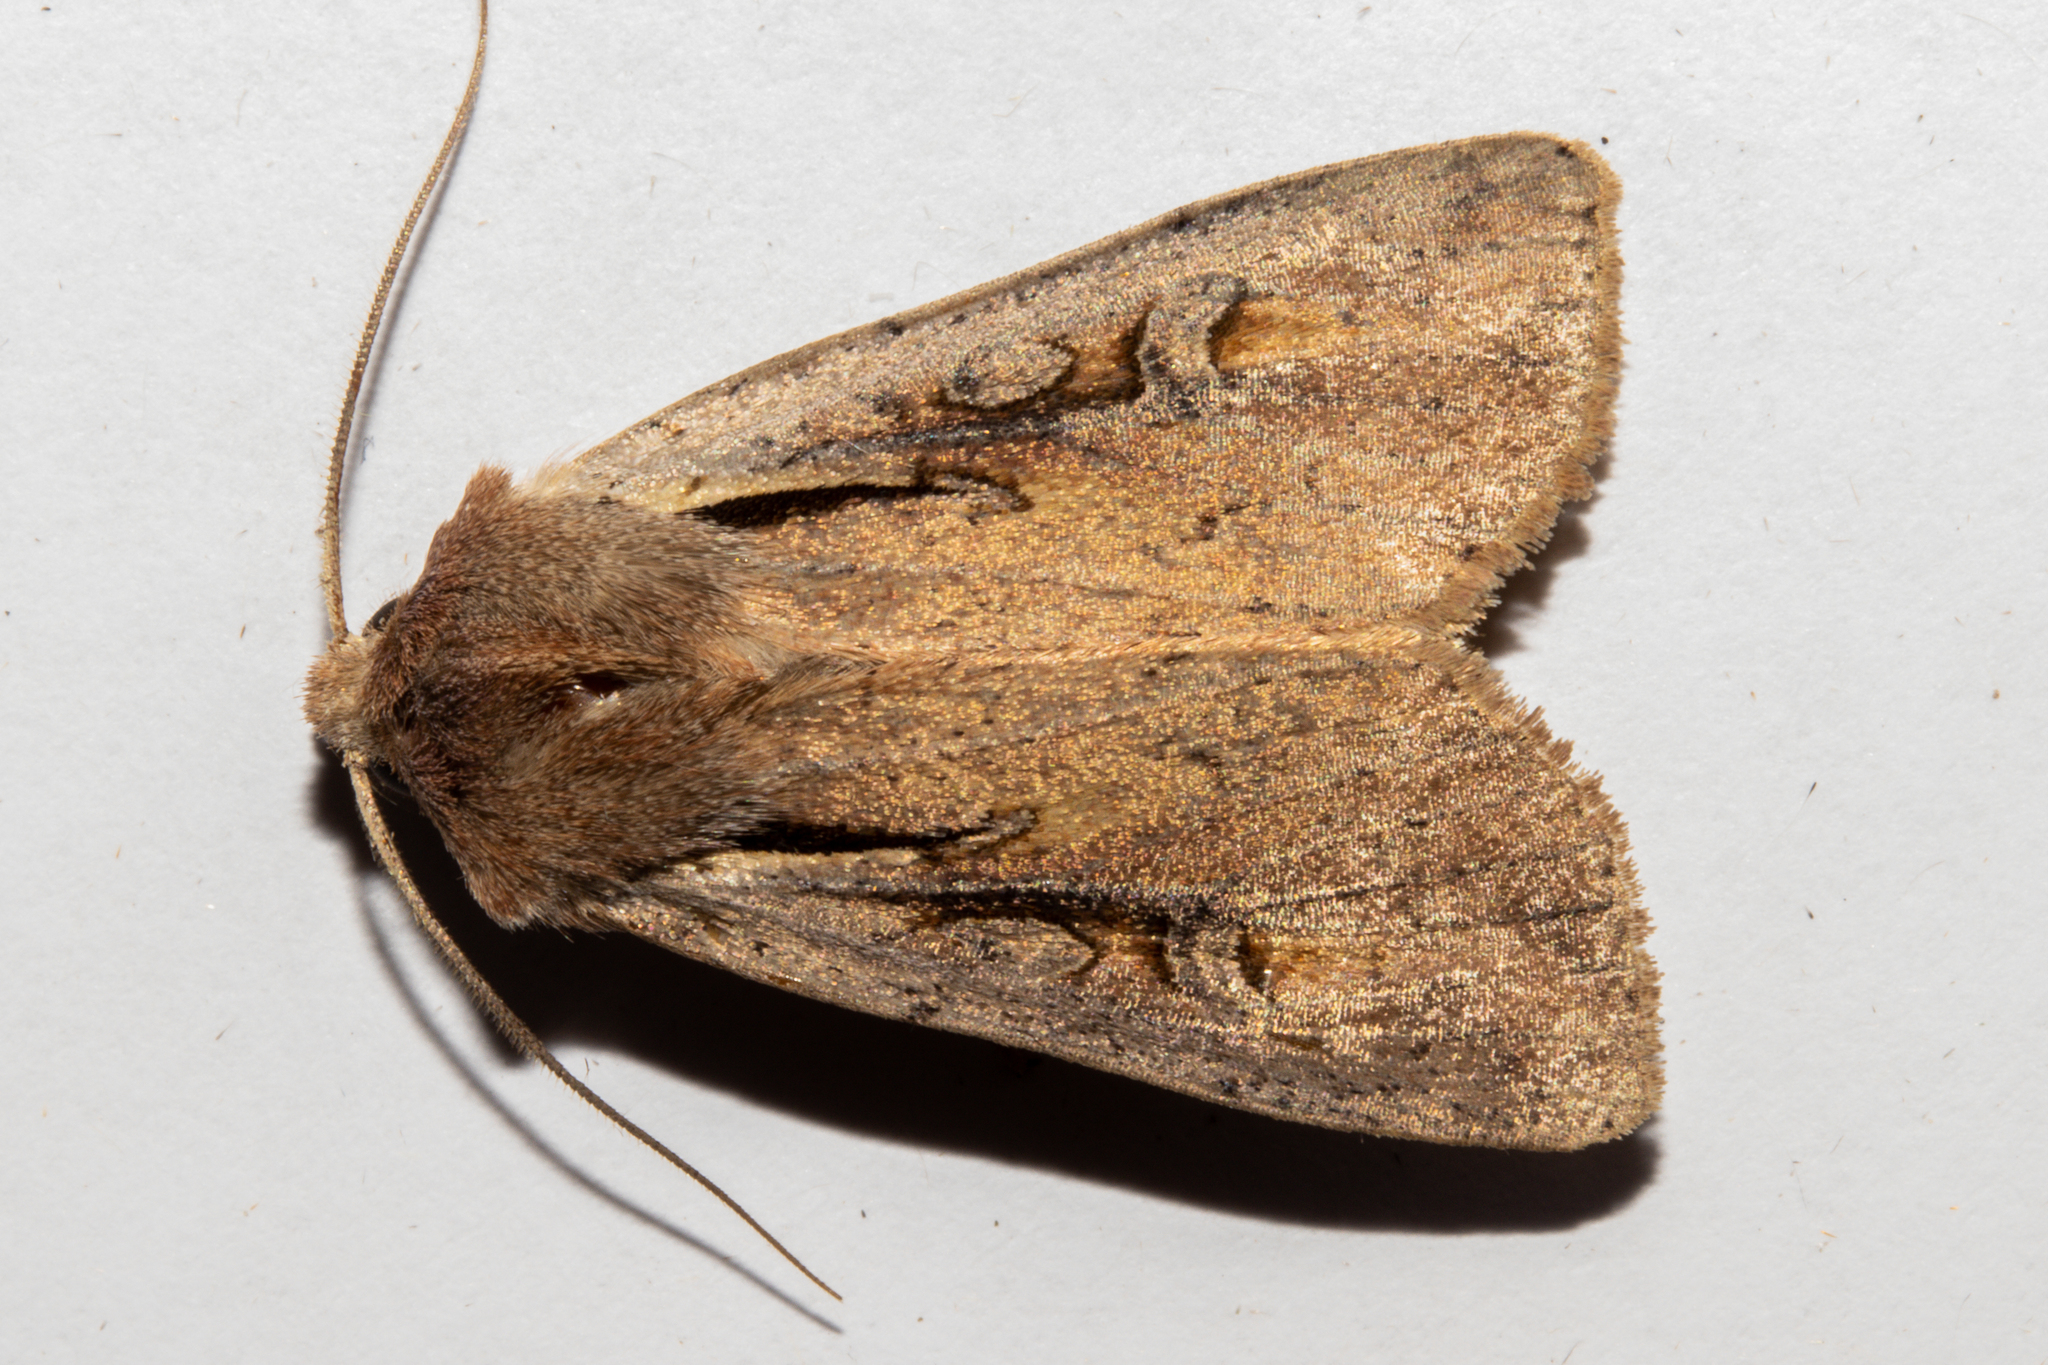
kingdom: Animalia
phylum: Arthropoda
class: Insecta
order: Lepidoptera
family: Noctuidae
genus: Ichneutica
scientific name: Ichneutica atristriga
